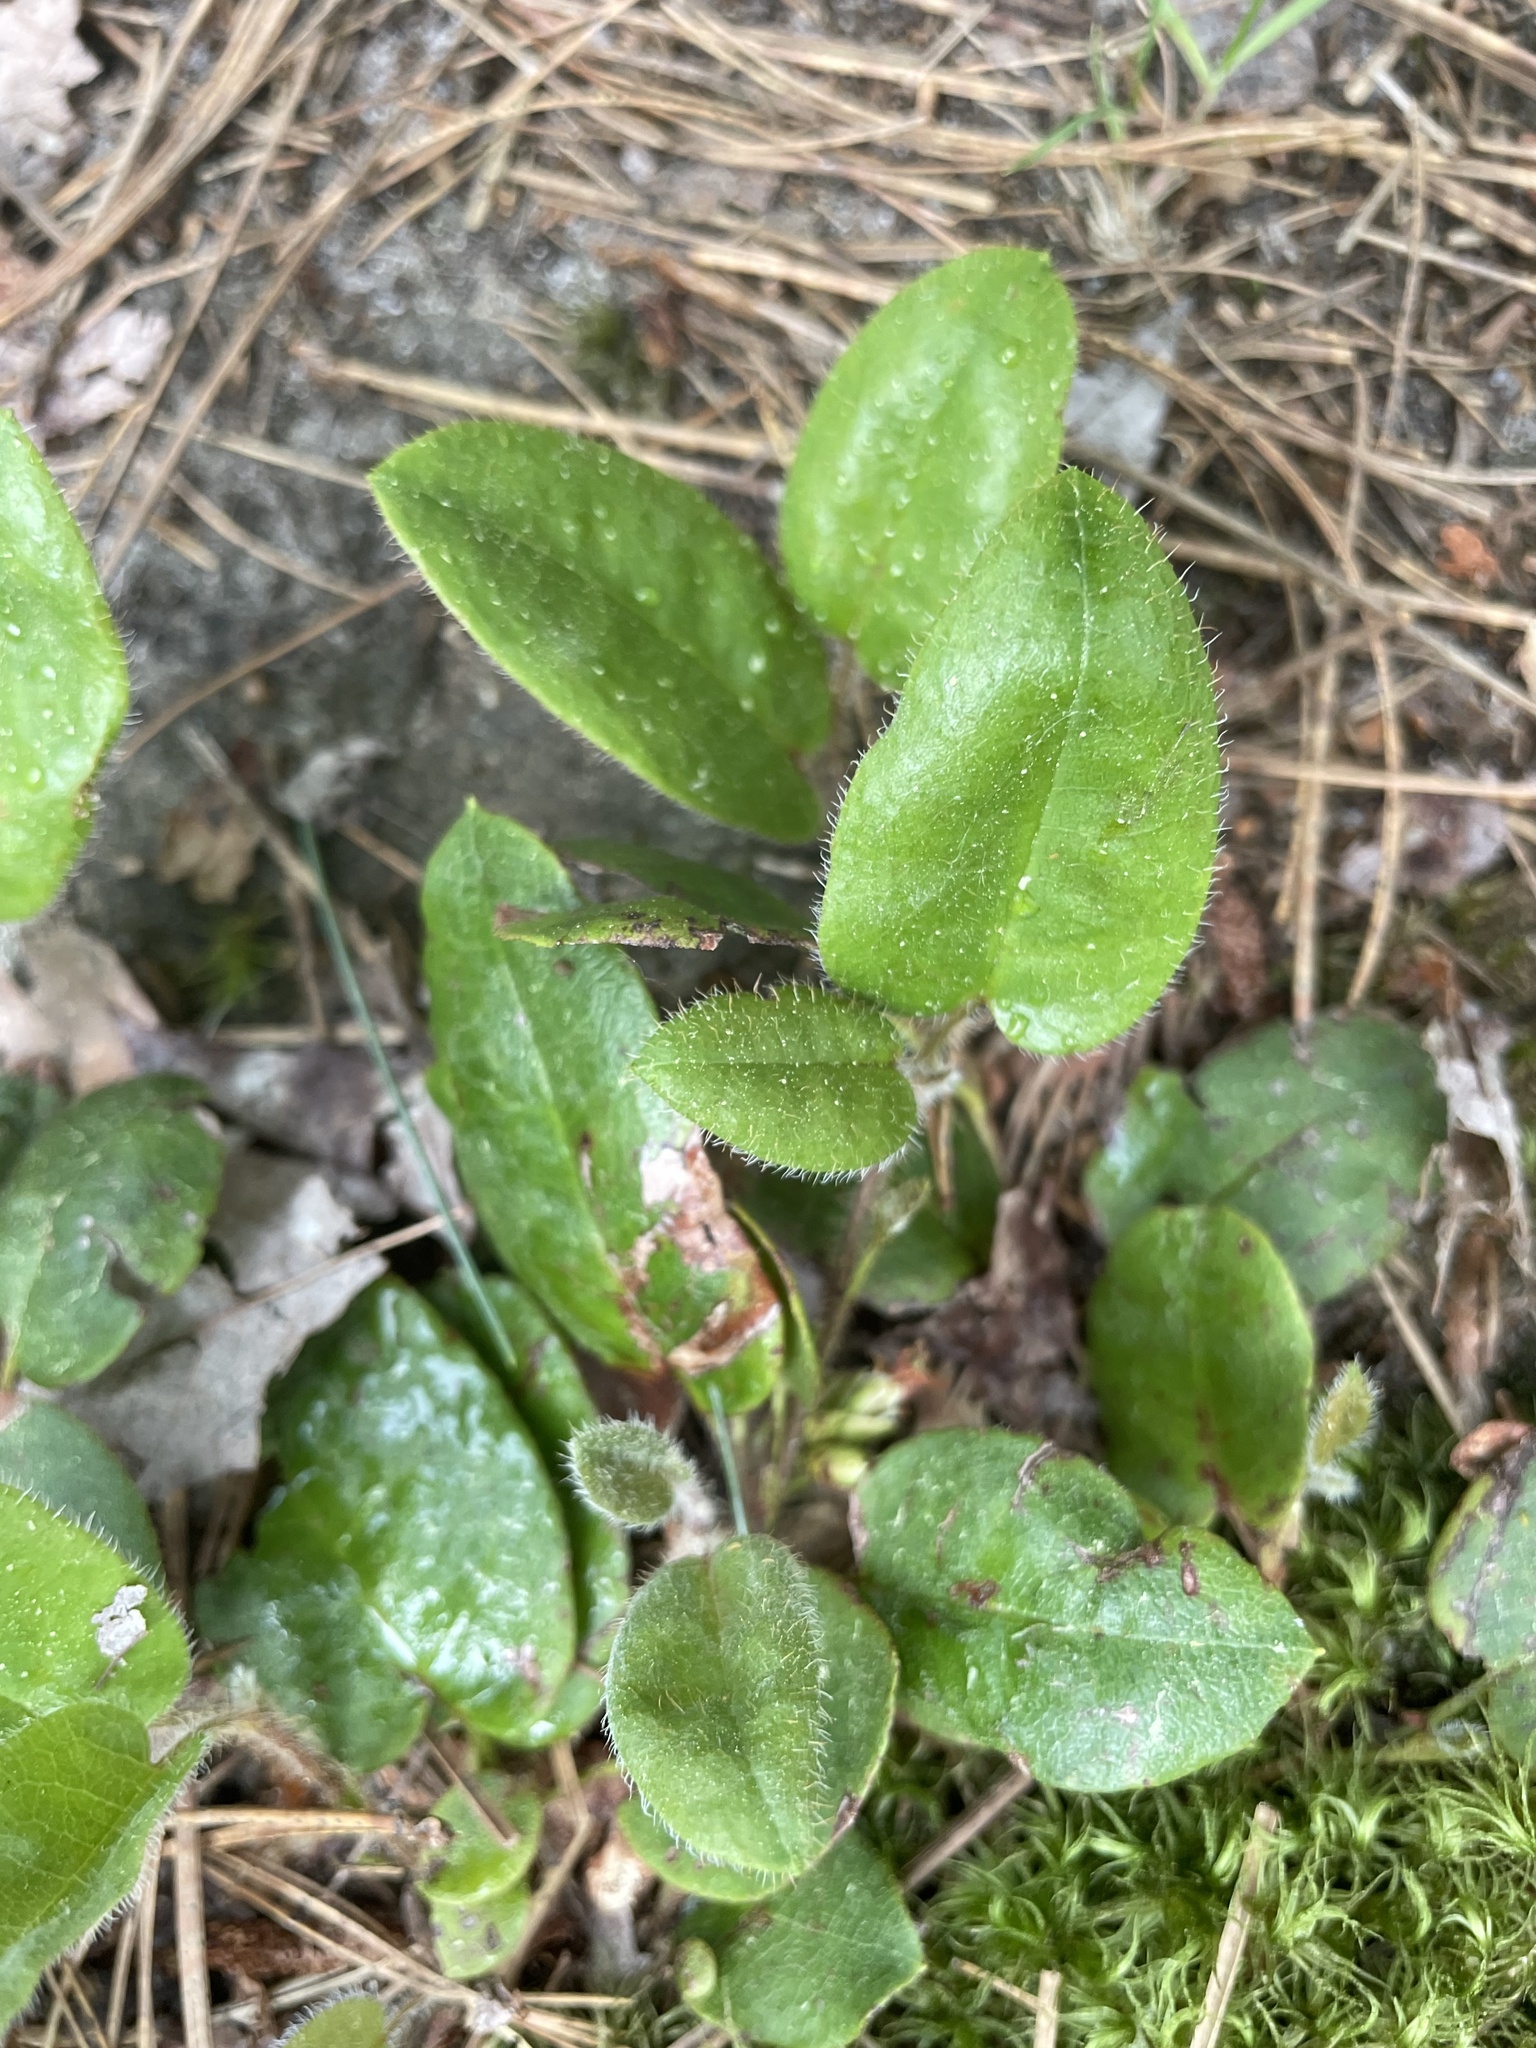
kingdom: Plantae
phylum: Tracheophyta
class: Magnoliopsida
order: Ericales
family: Ericaceae
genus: Epigaea
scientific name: Epigaea repens
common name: Gravelroot
